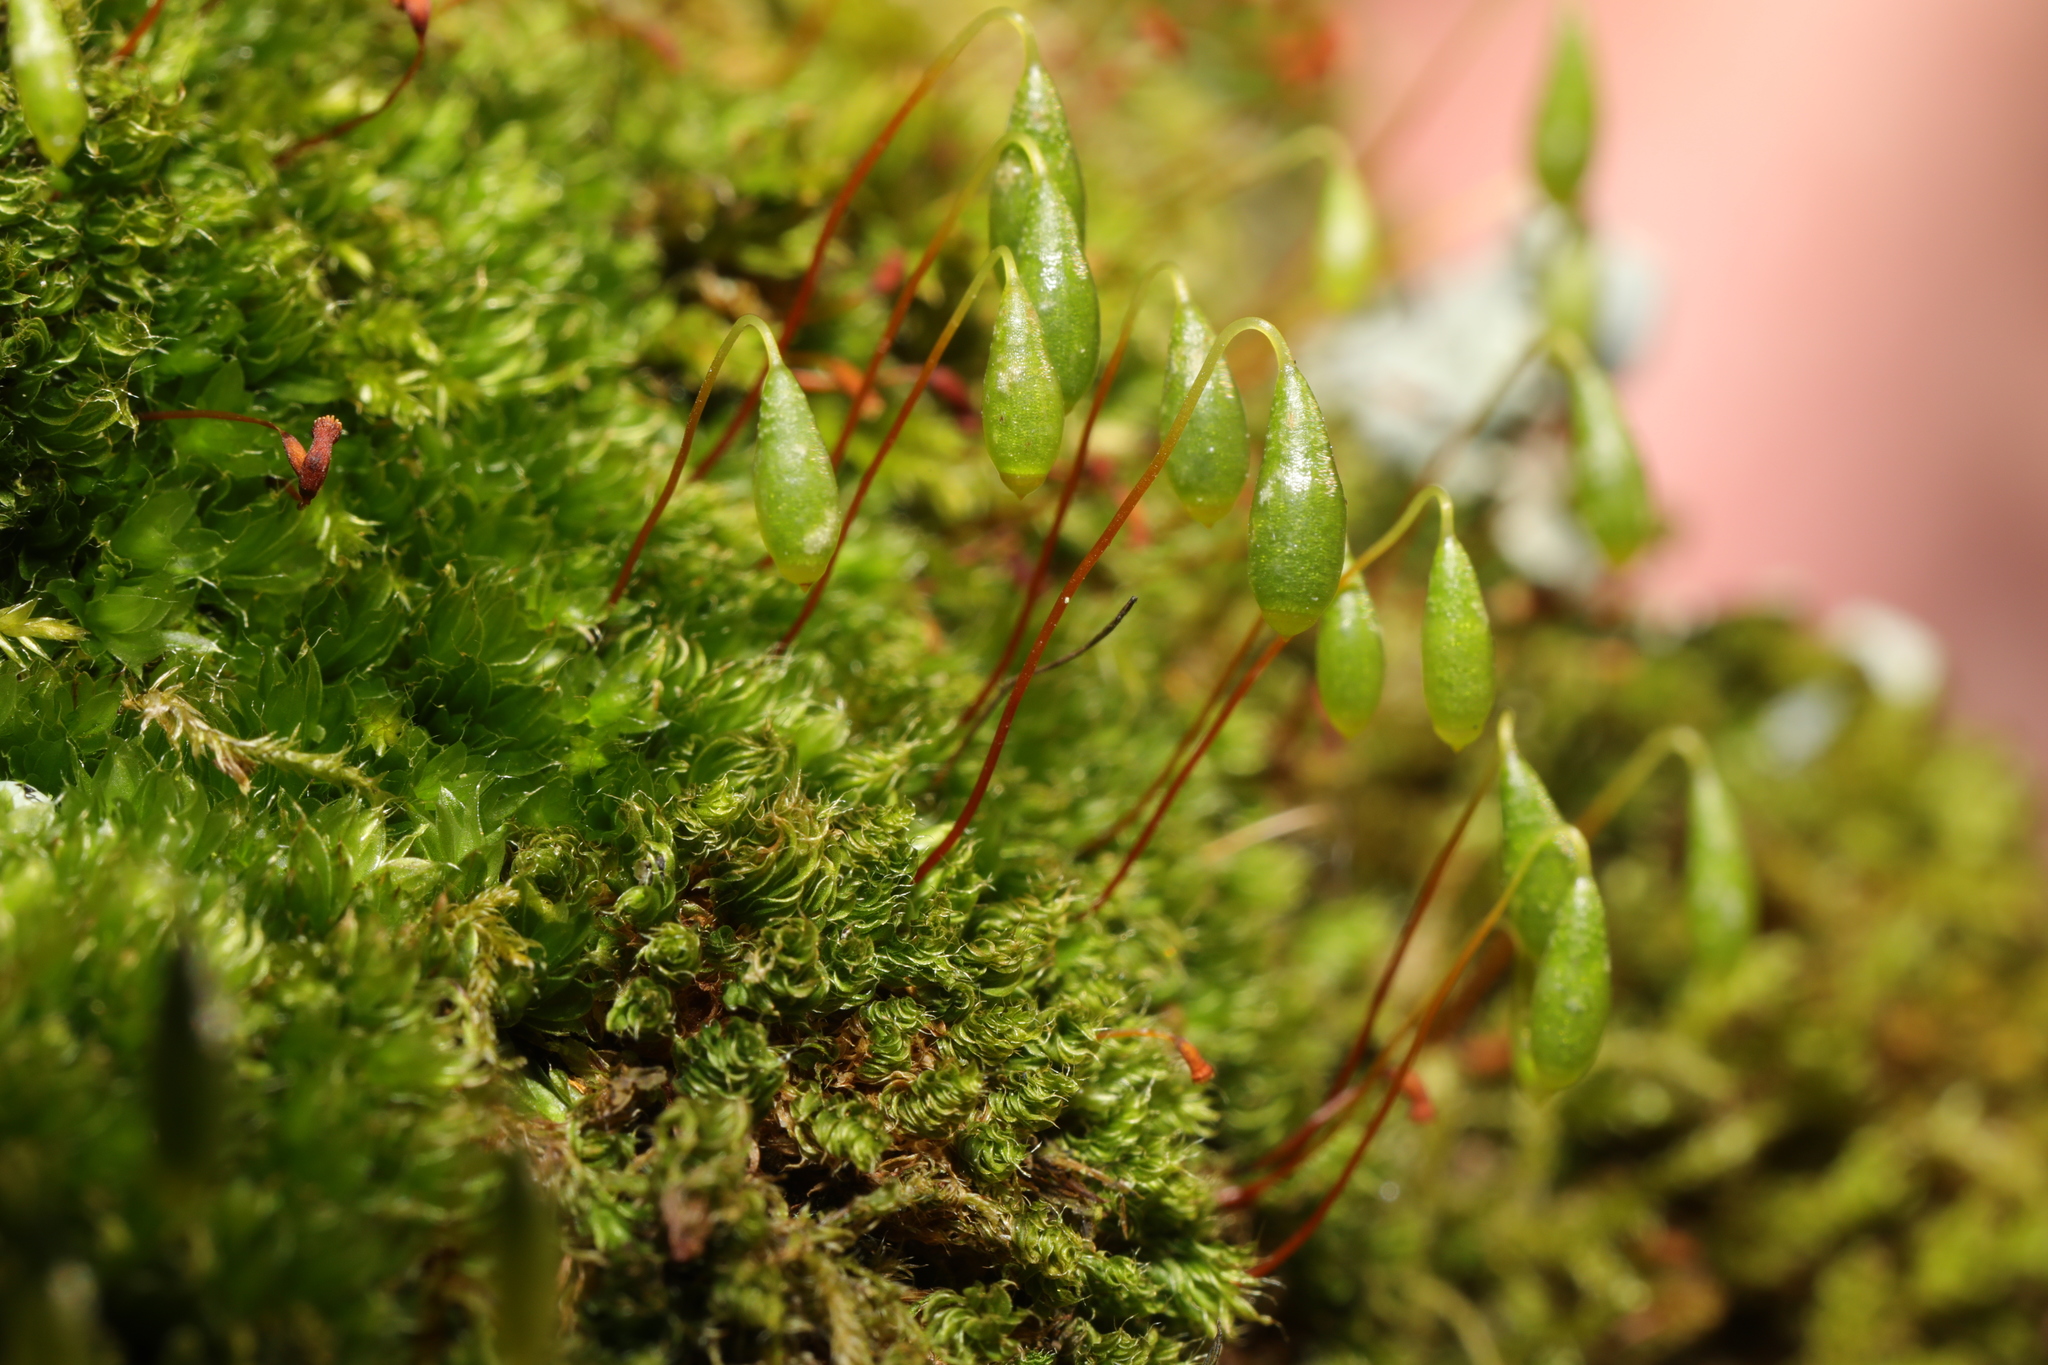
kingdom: Plantae
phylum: Bryophyta
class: Bryopsida
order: Bryales
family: Bryaceae
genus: Rosulabryum
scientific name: Rosulabryum capillare
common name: Capillary thread-moss
